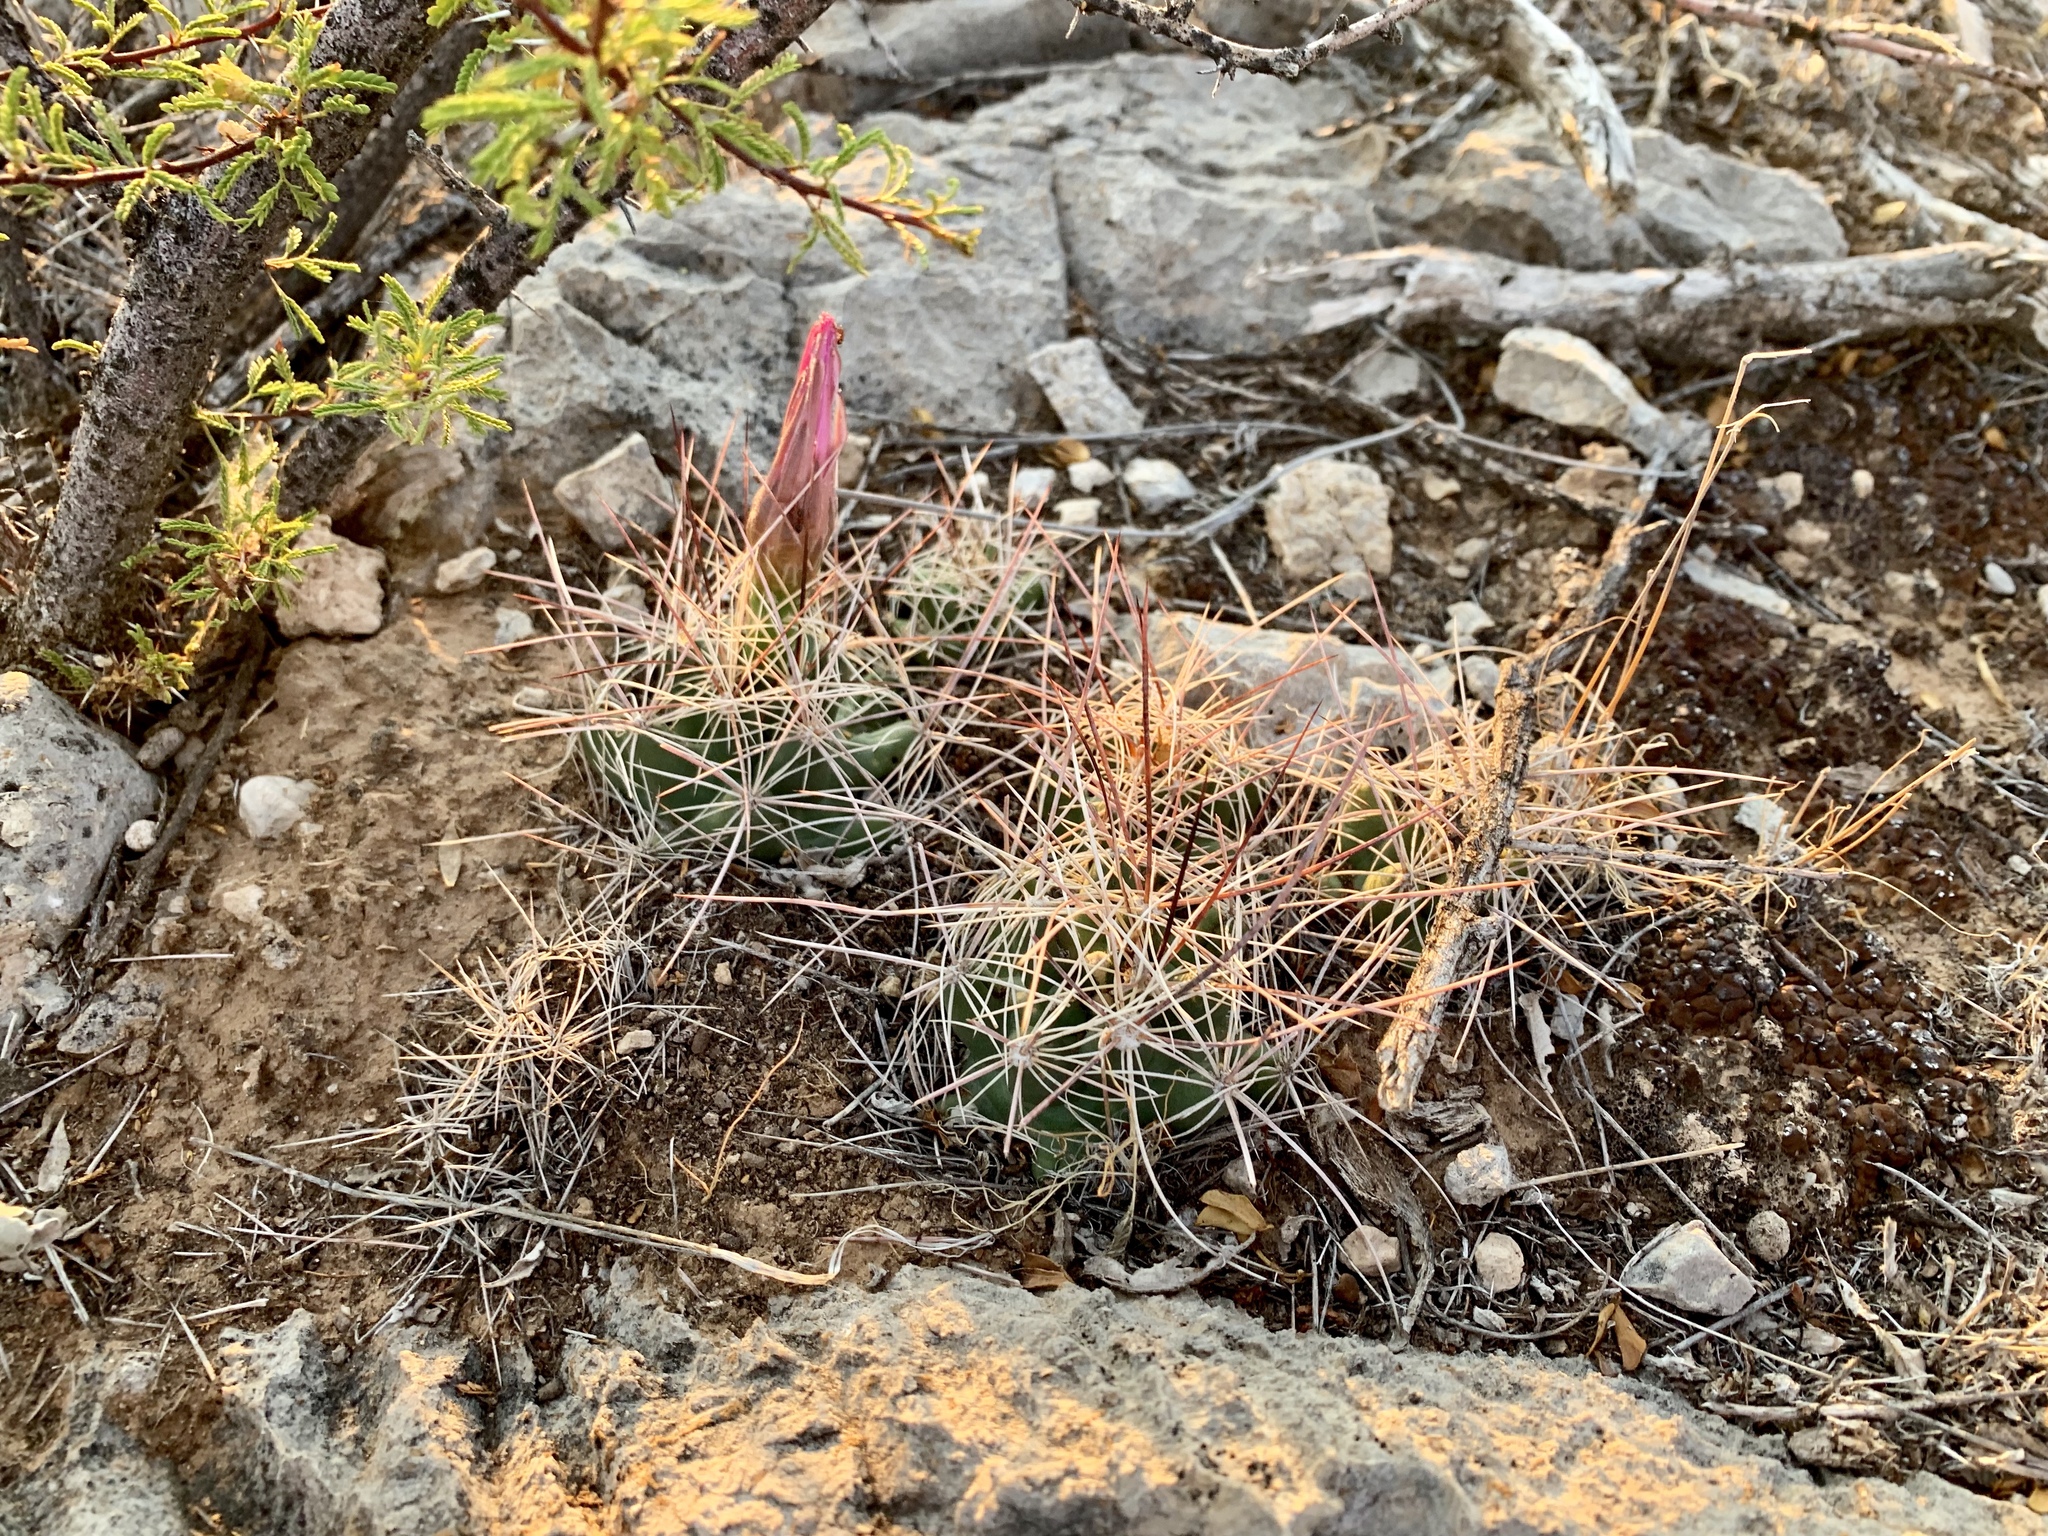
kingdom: Plantae
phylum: Tracheophyta
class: Magnoliopsida
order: Caryophyllales
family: Cactaceae
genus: Coryphantha
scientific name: Coryphantha macromeris
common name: Nipple beehive cactus
